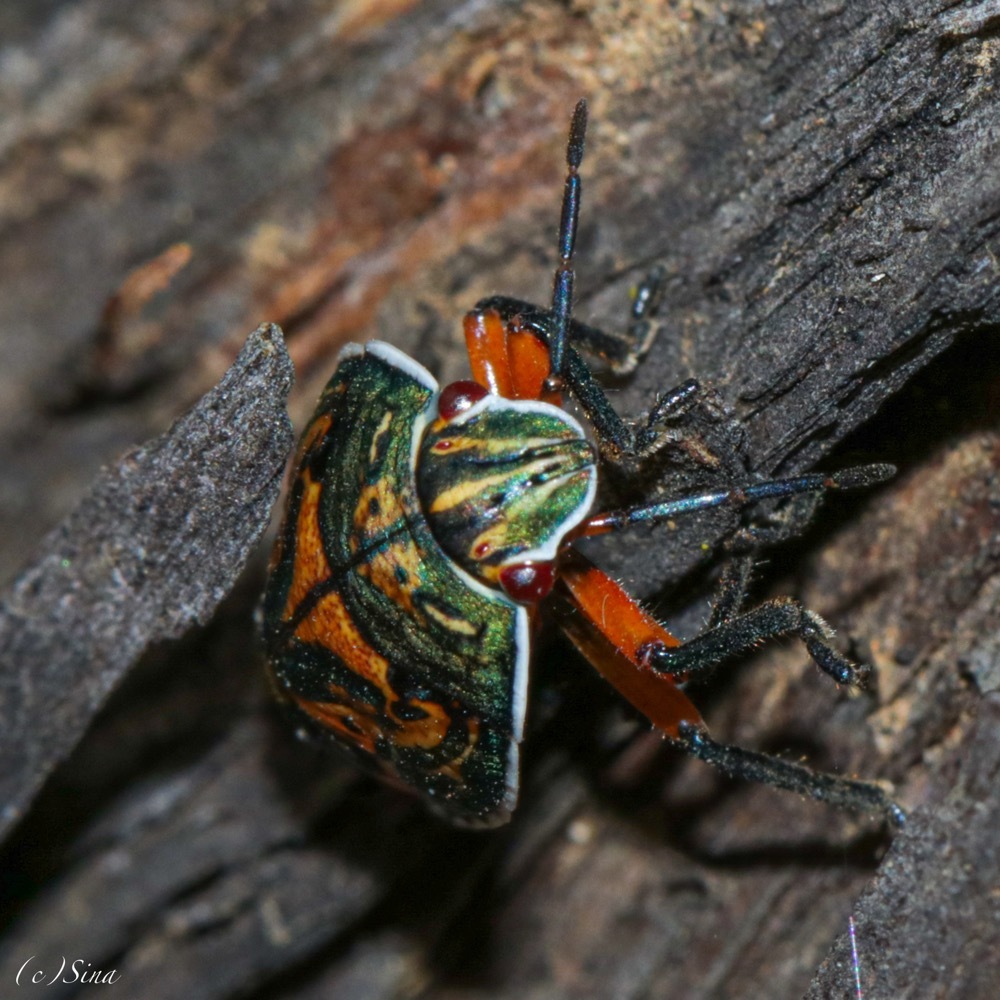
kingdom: Animalia
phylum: Arthropoda
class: Insecta
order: Hemiptera
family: Pentatomidae
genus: Coleotichus
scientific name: Coleotichus costatus
